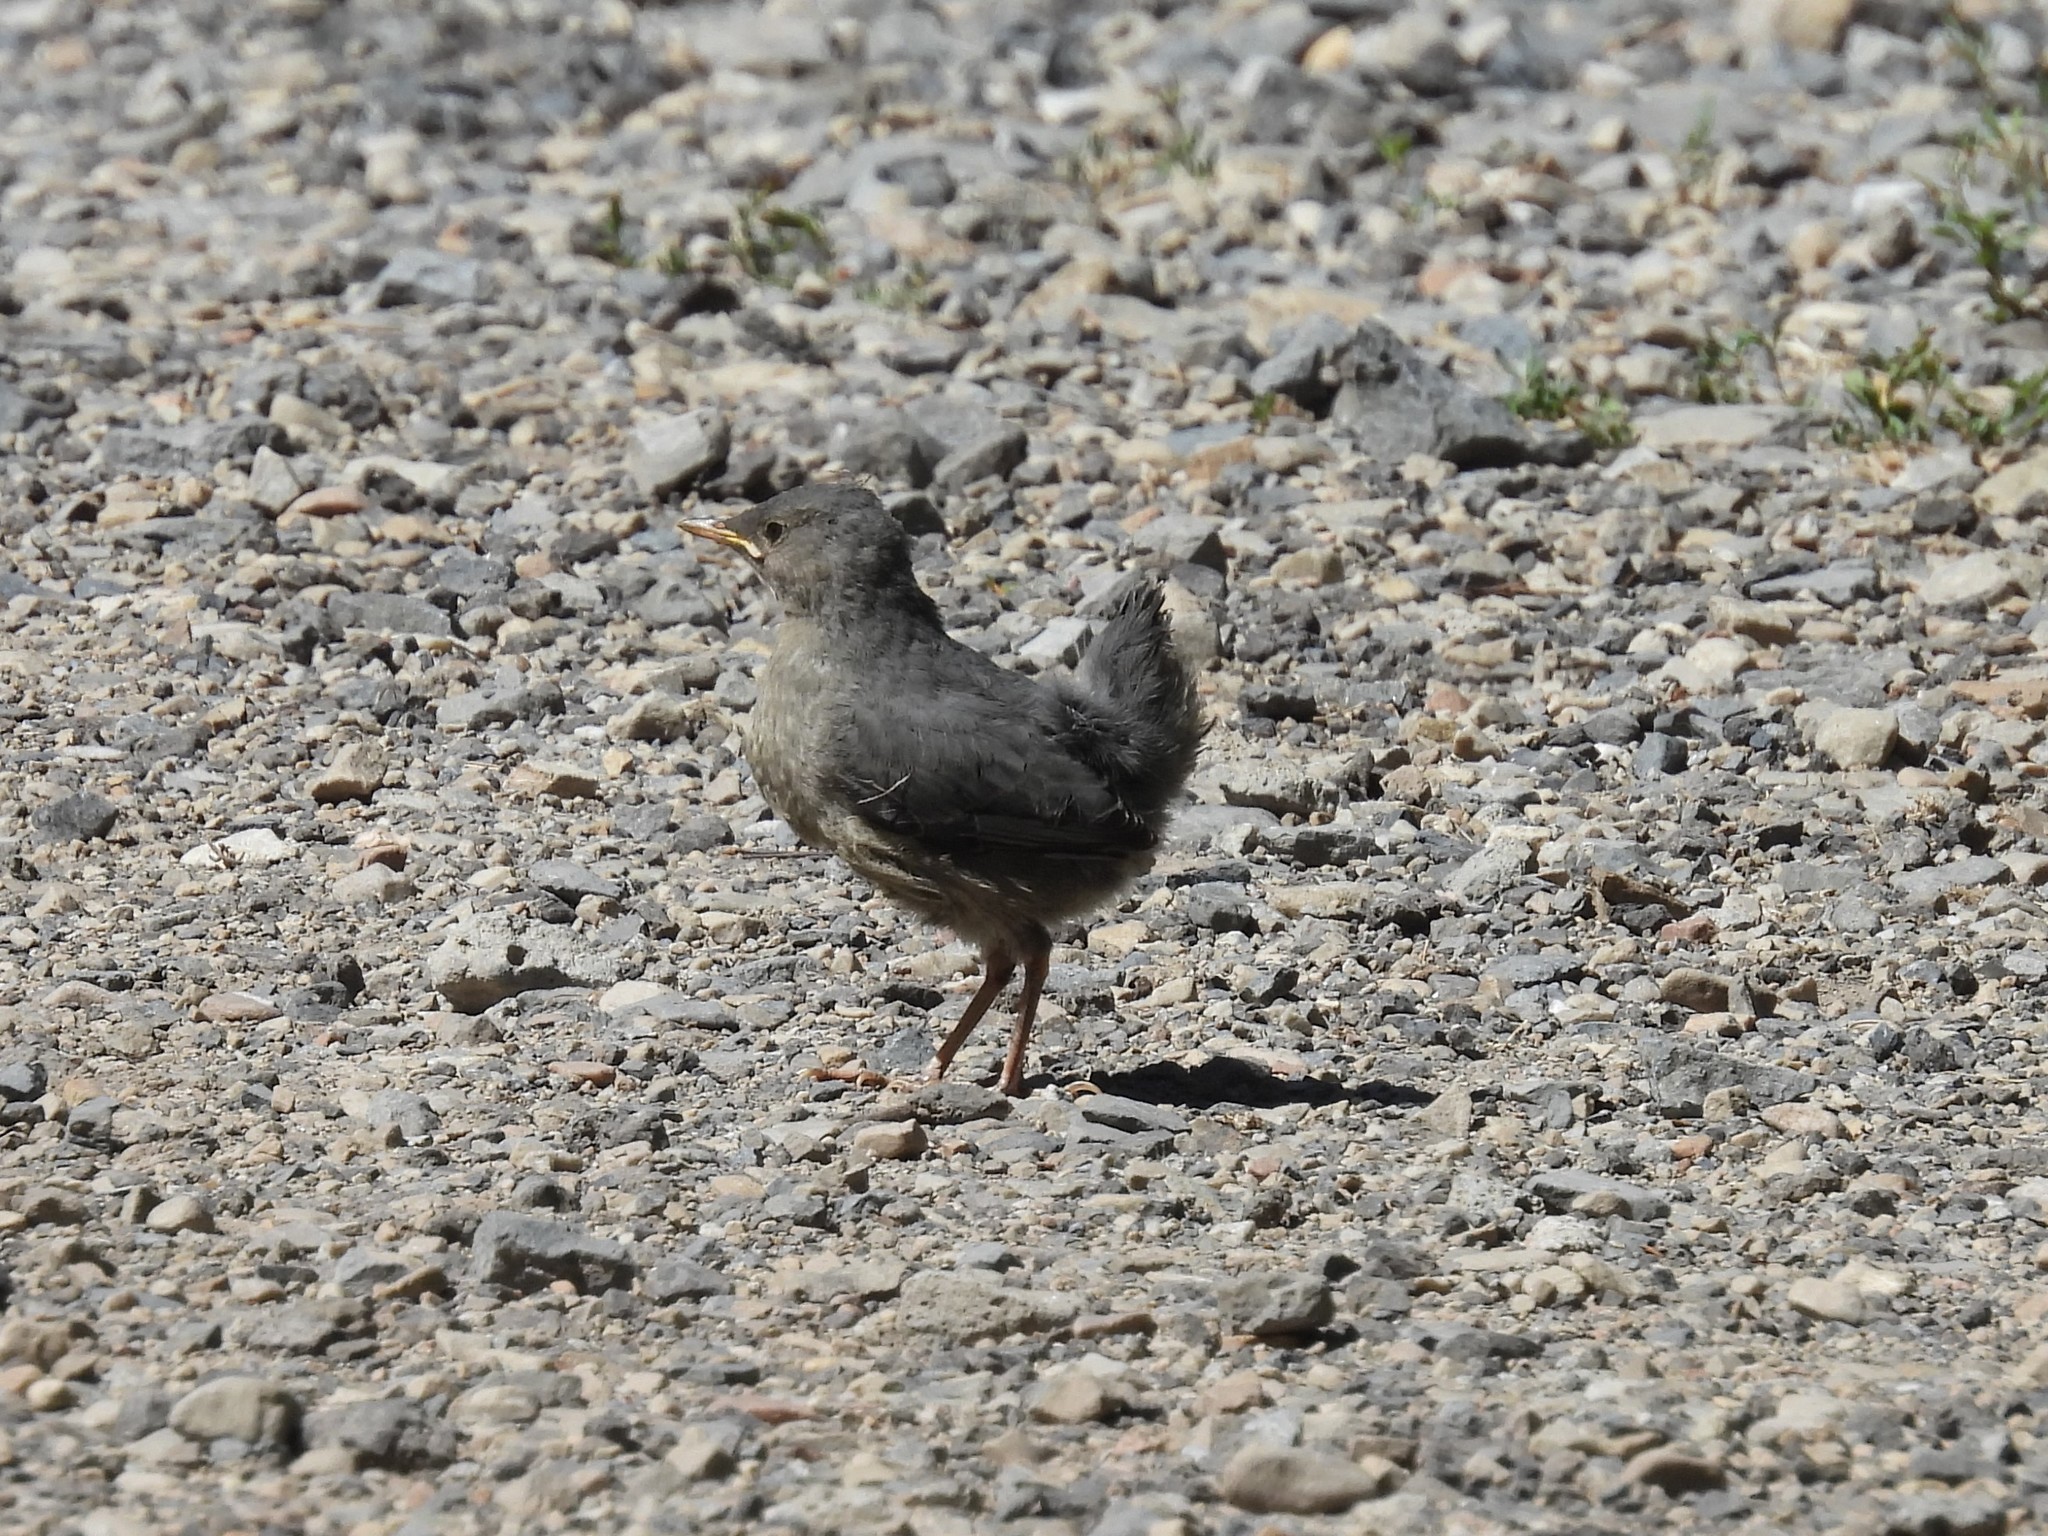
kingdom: Animalia
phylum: Chordata
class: Aves
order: Passeriformes
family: Cinclidae
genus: Cinclus
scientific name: Cinclus mexicanus
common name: American dipper
